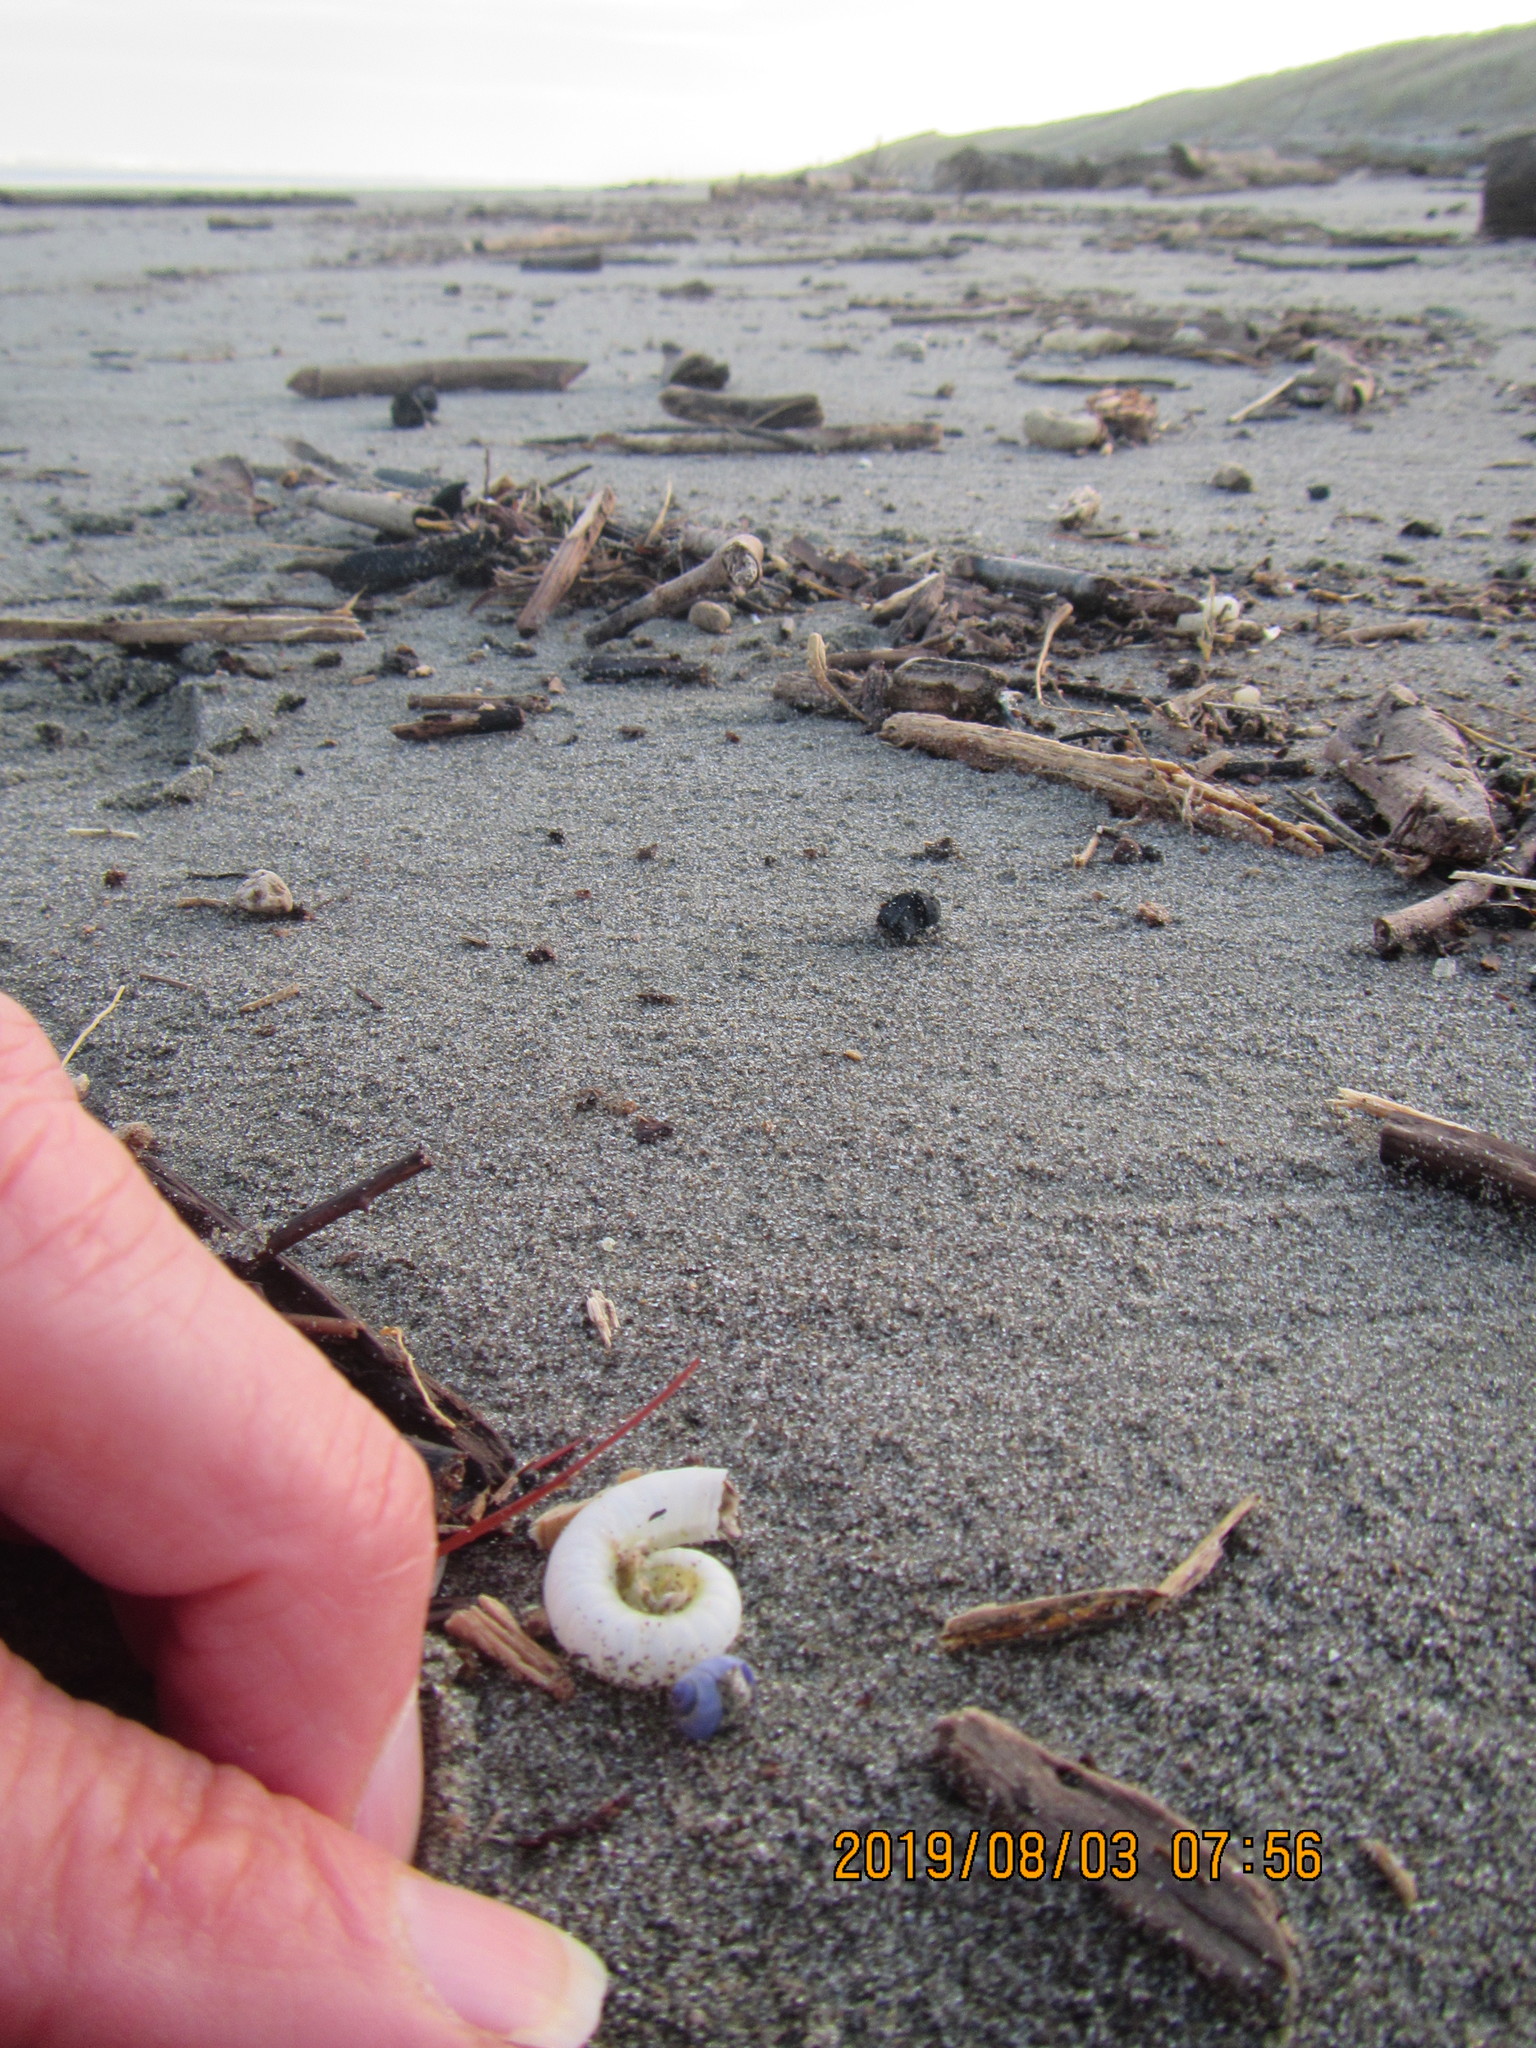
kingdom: Animalia
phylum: Mollusca
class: Gastropoda
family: Epitoniidae
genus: Janthina
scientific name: Janthina exigua
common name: Dwarf janthina
